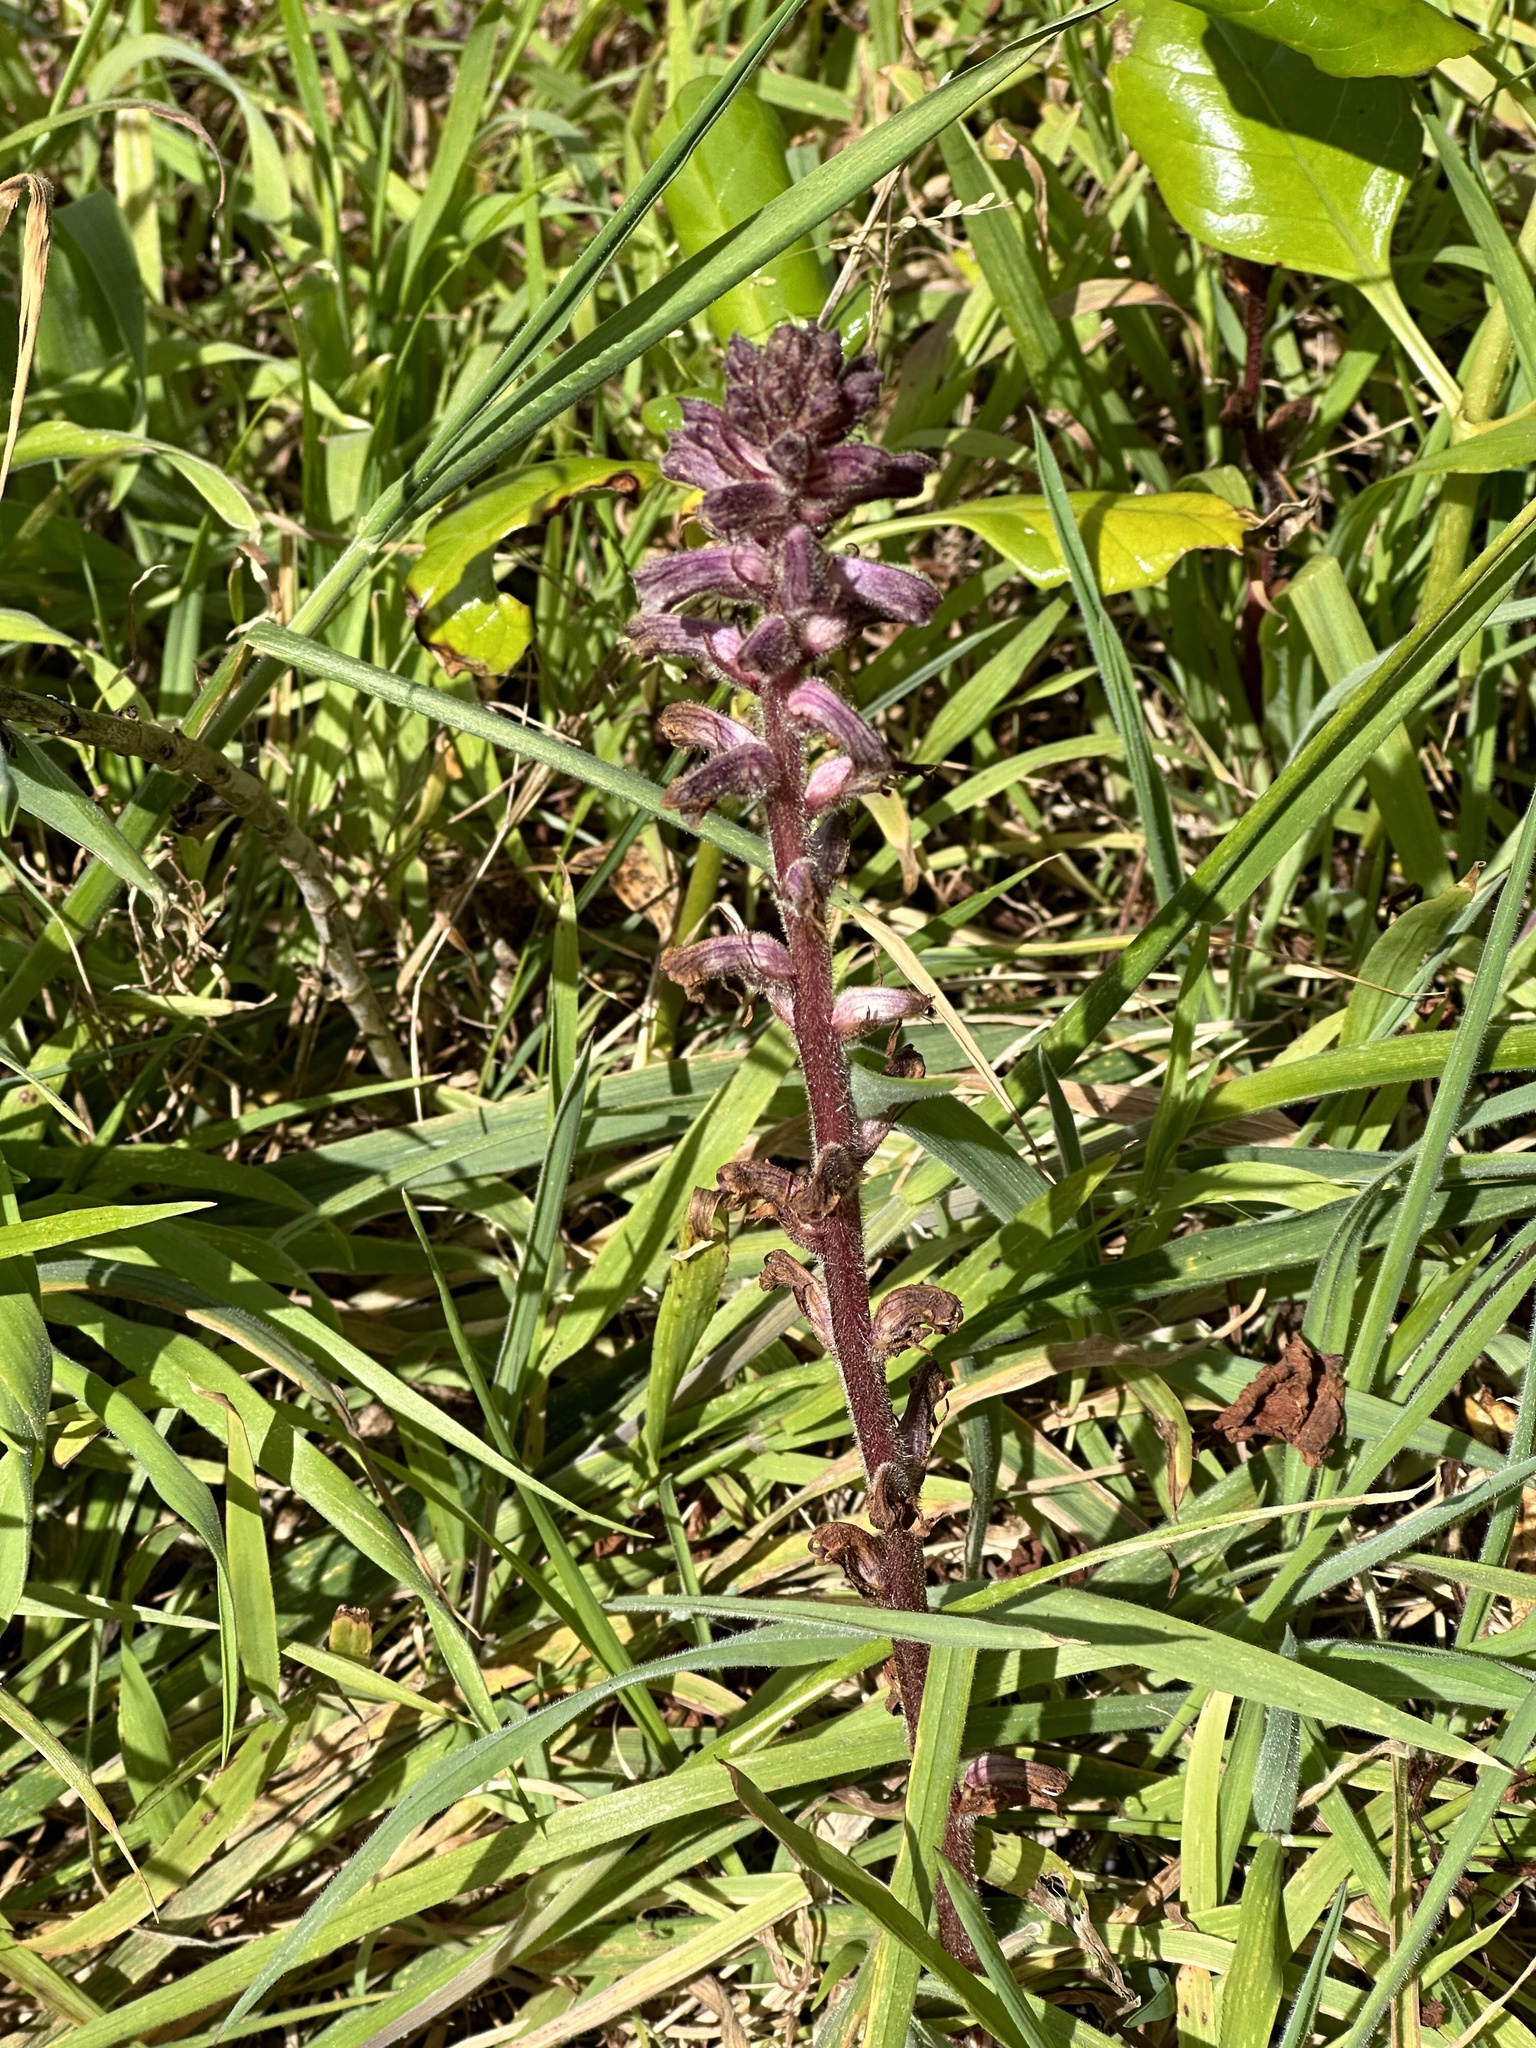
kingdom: Plantae
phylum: Tracheophyta
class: Magnoliopsida
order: Lamiales
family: Orobanchaceae
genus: Orobanche
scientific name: Orobanche minor
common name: Common broomrape
